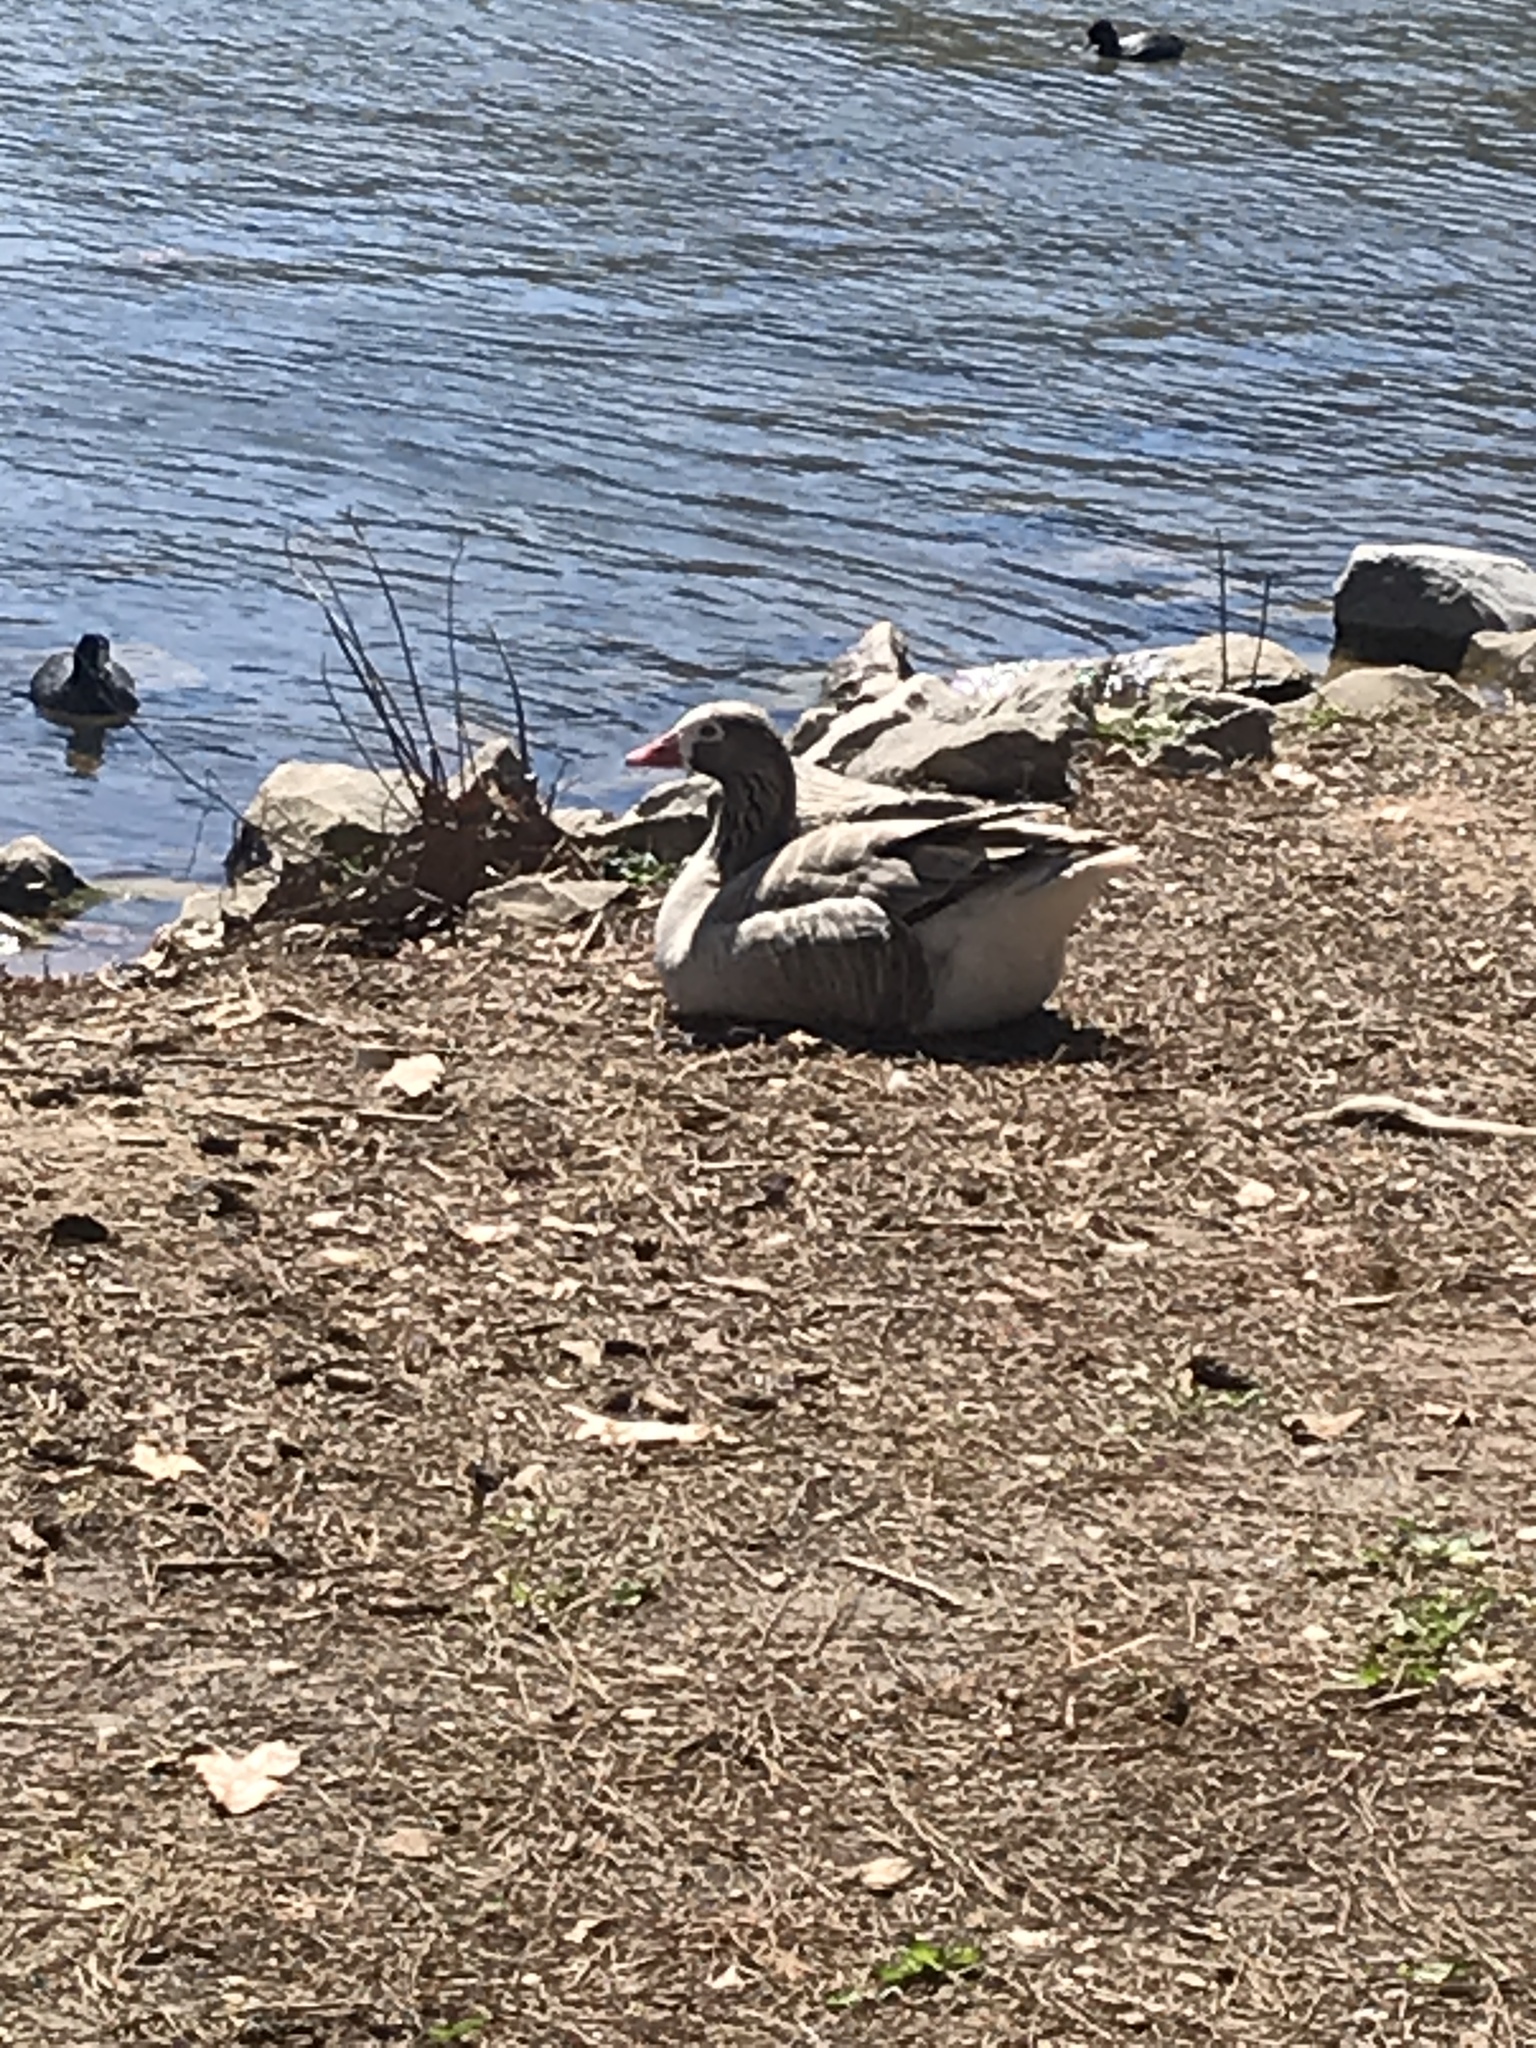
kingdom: Animalia
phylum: Chordata
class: Aves
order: Anseriformes
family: Anatidae
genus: Anser
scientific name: Anser anser
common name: Greylag goose
